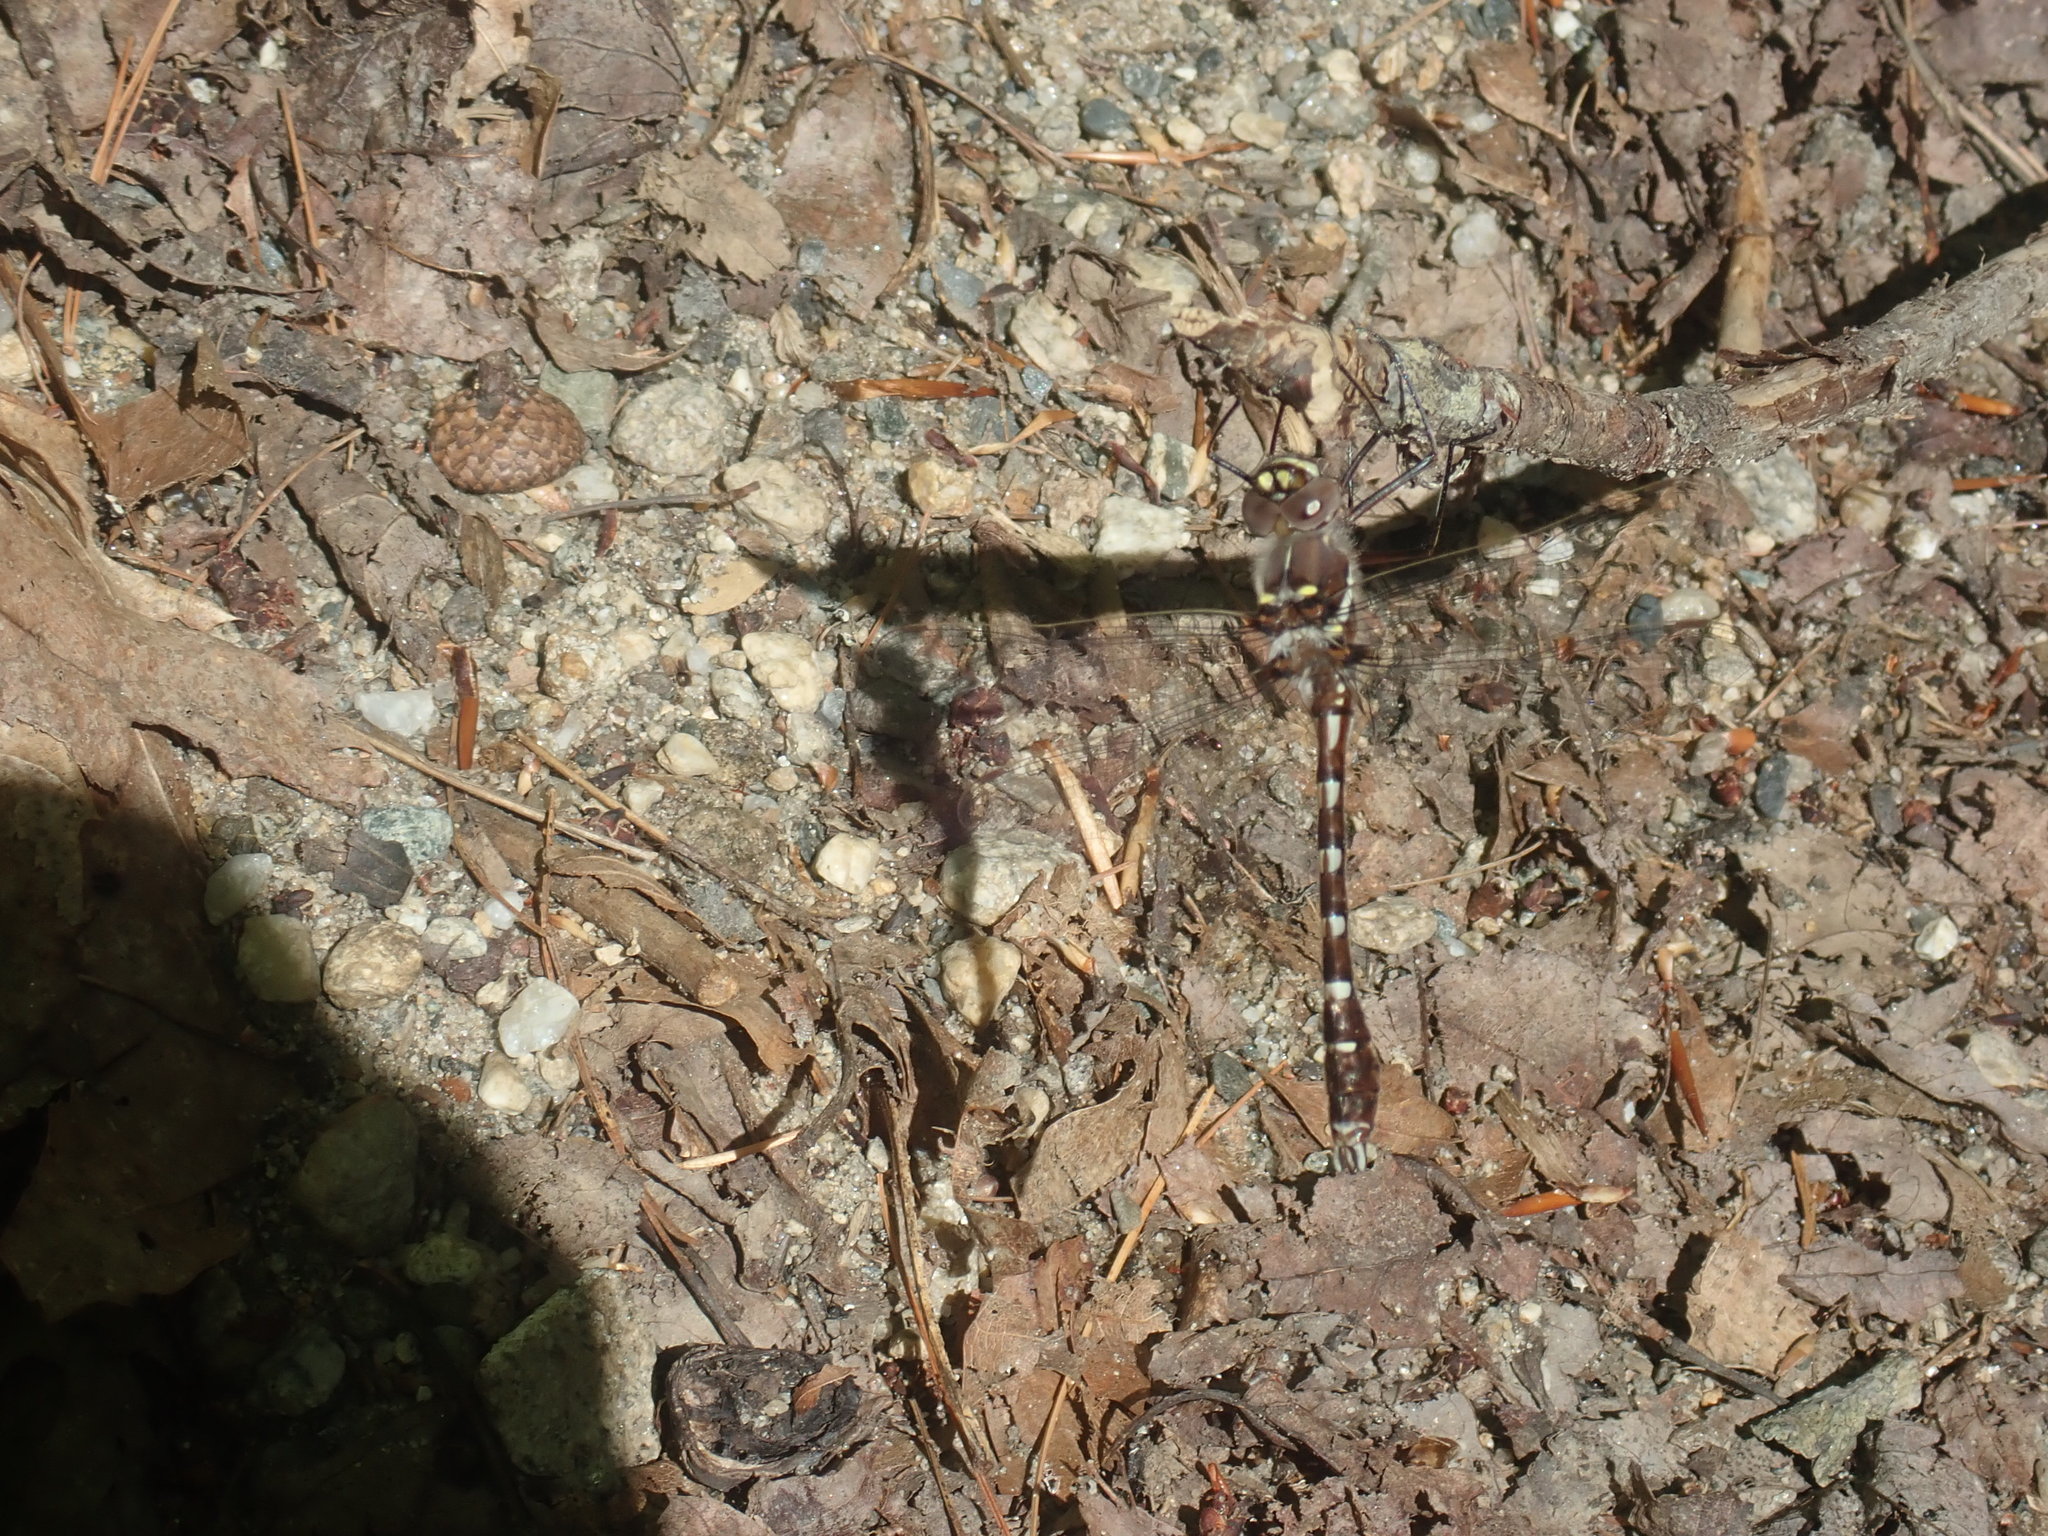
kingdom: Animalia
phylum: Arthropoda
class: Insecta
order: Odonata
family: Macromiidae
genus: Didymops
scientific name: Didymops transversa
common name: Stream cruiser
